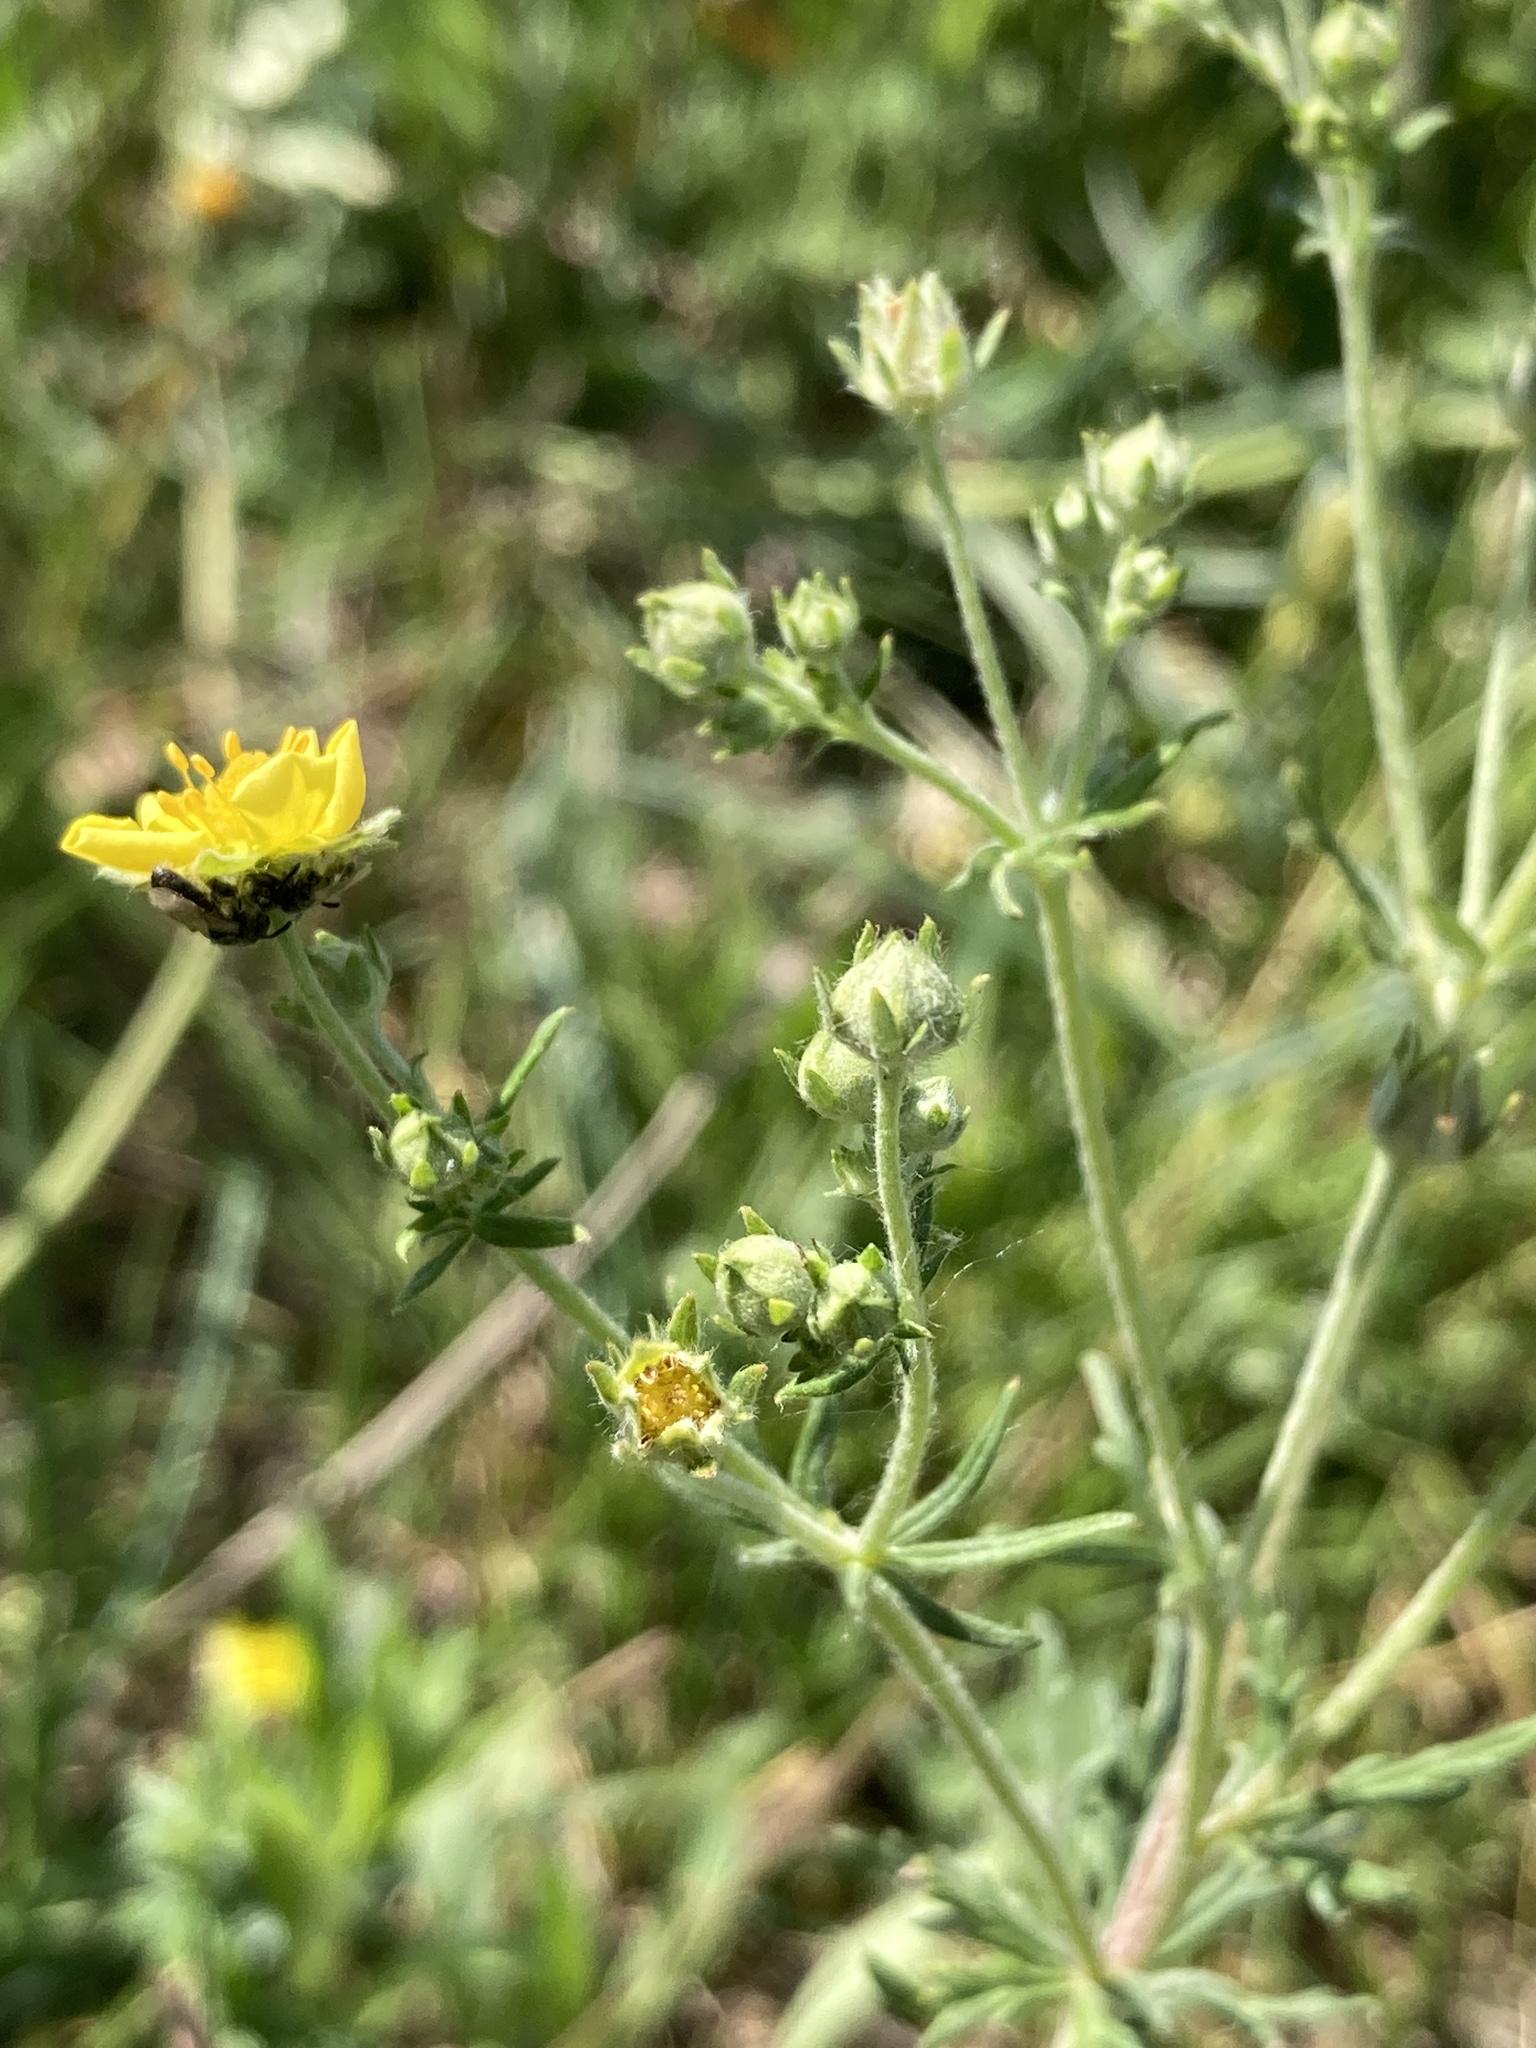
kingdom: Plantae
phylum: Tracheophyta
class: Magnoliopsida
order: Rosales
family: Rosaceae
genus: Potentilla
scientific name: Potentilla argentea
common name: Hoary cinquefoil
